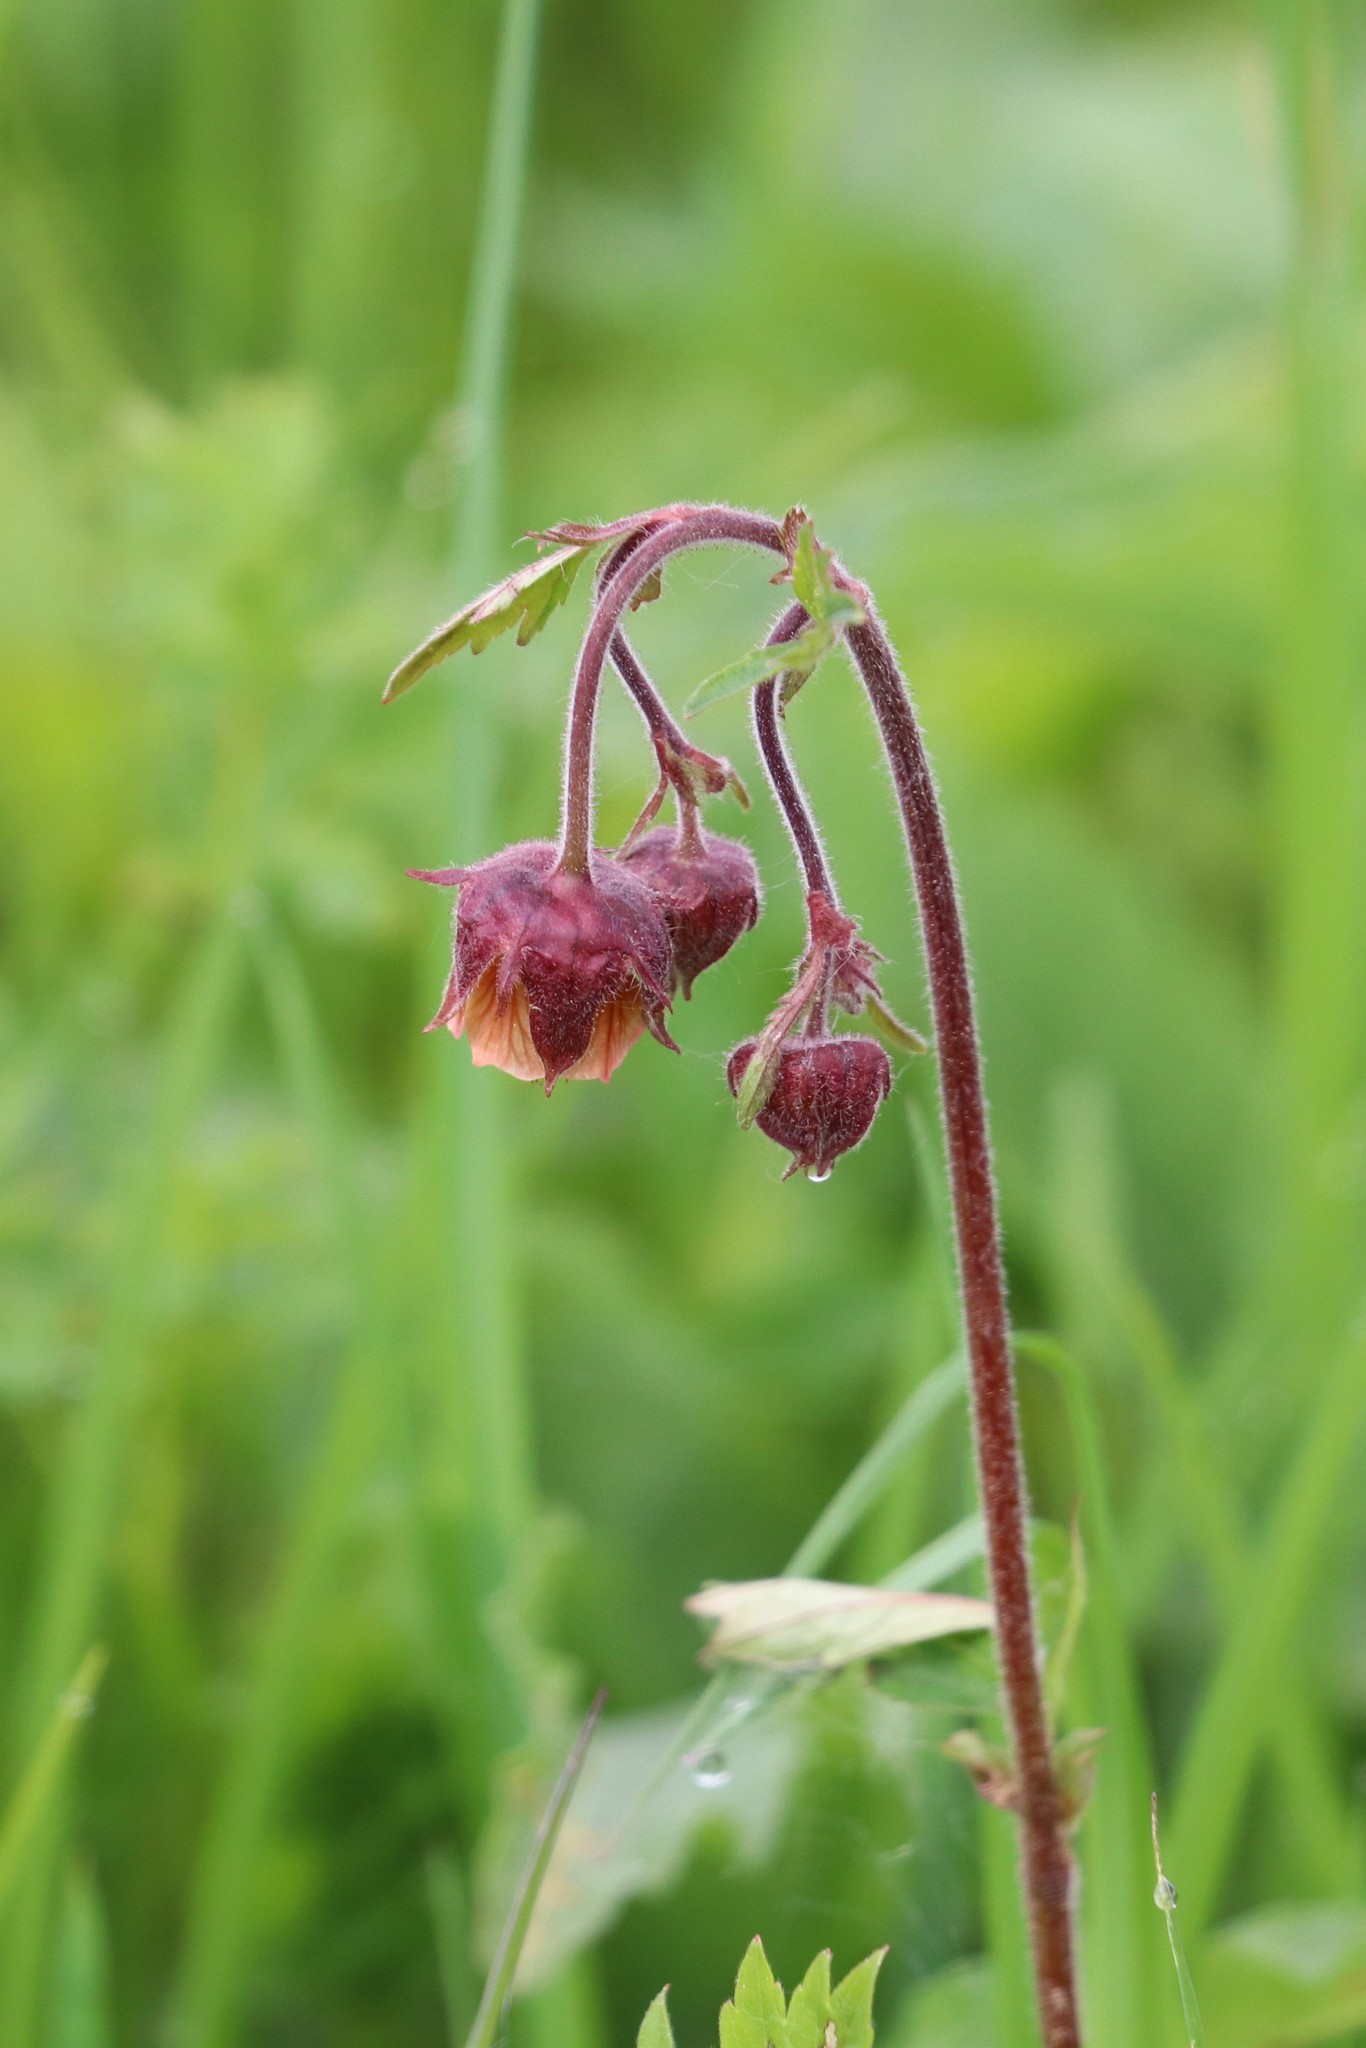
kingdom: Plantae
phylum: Tracheophyta
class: Magnoliopsida
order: Rosales
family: Rosaceae
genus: Geum
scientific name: Geum rivale
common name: Water avens
